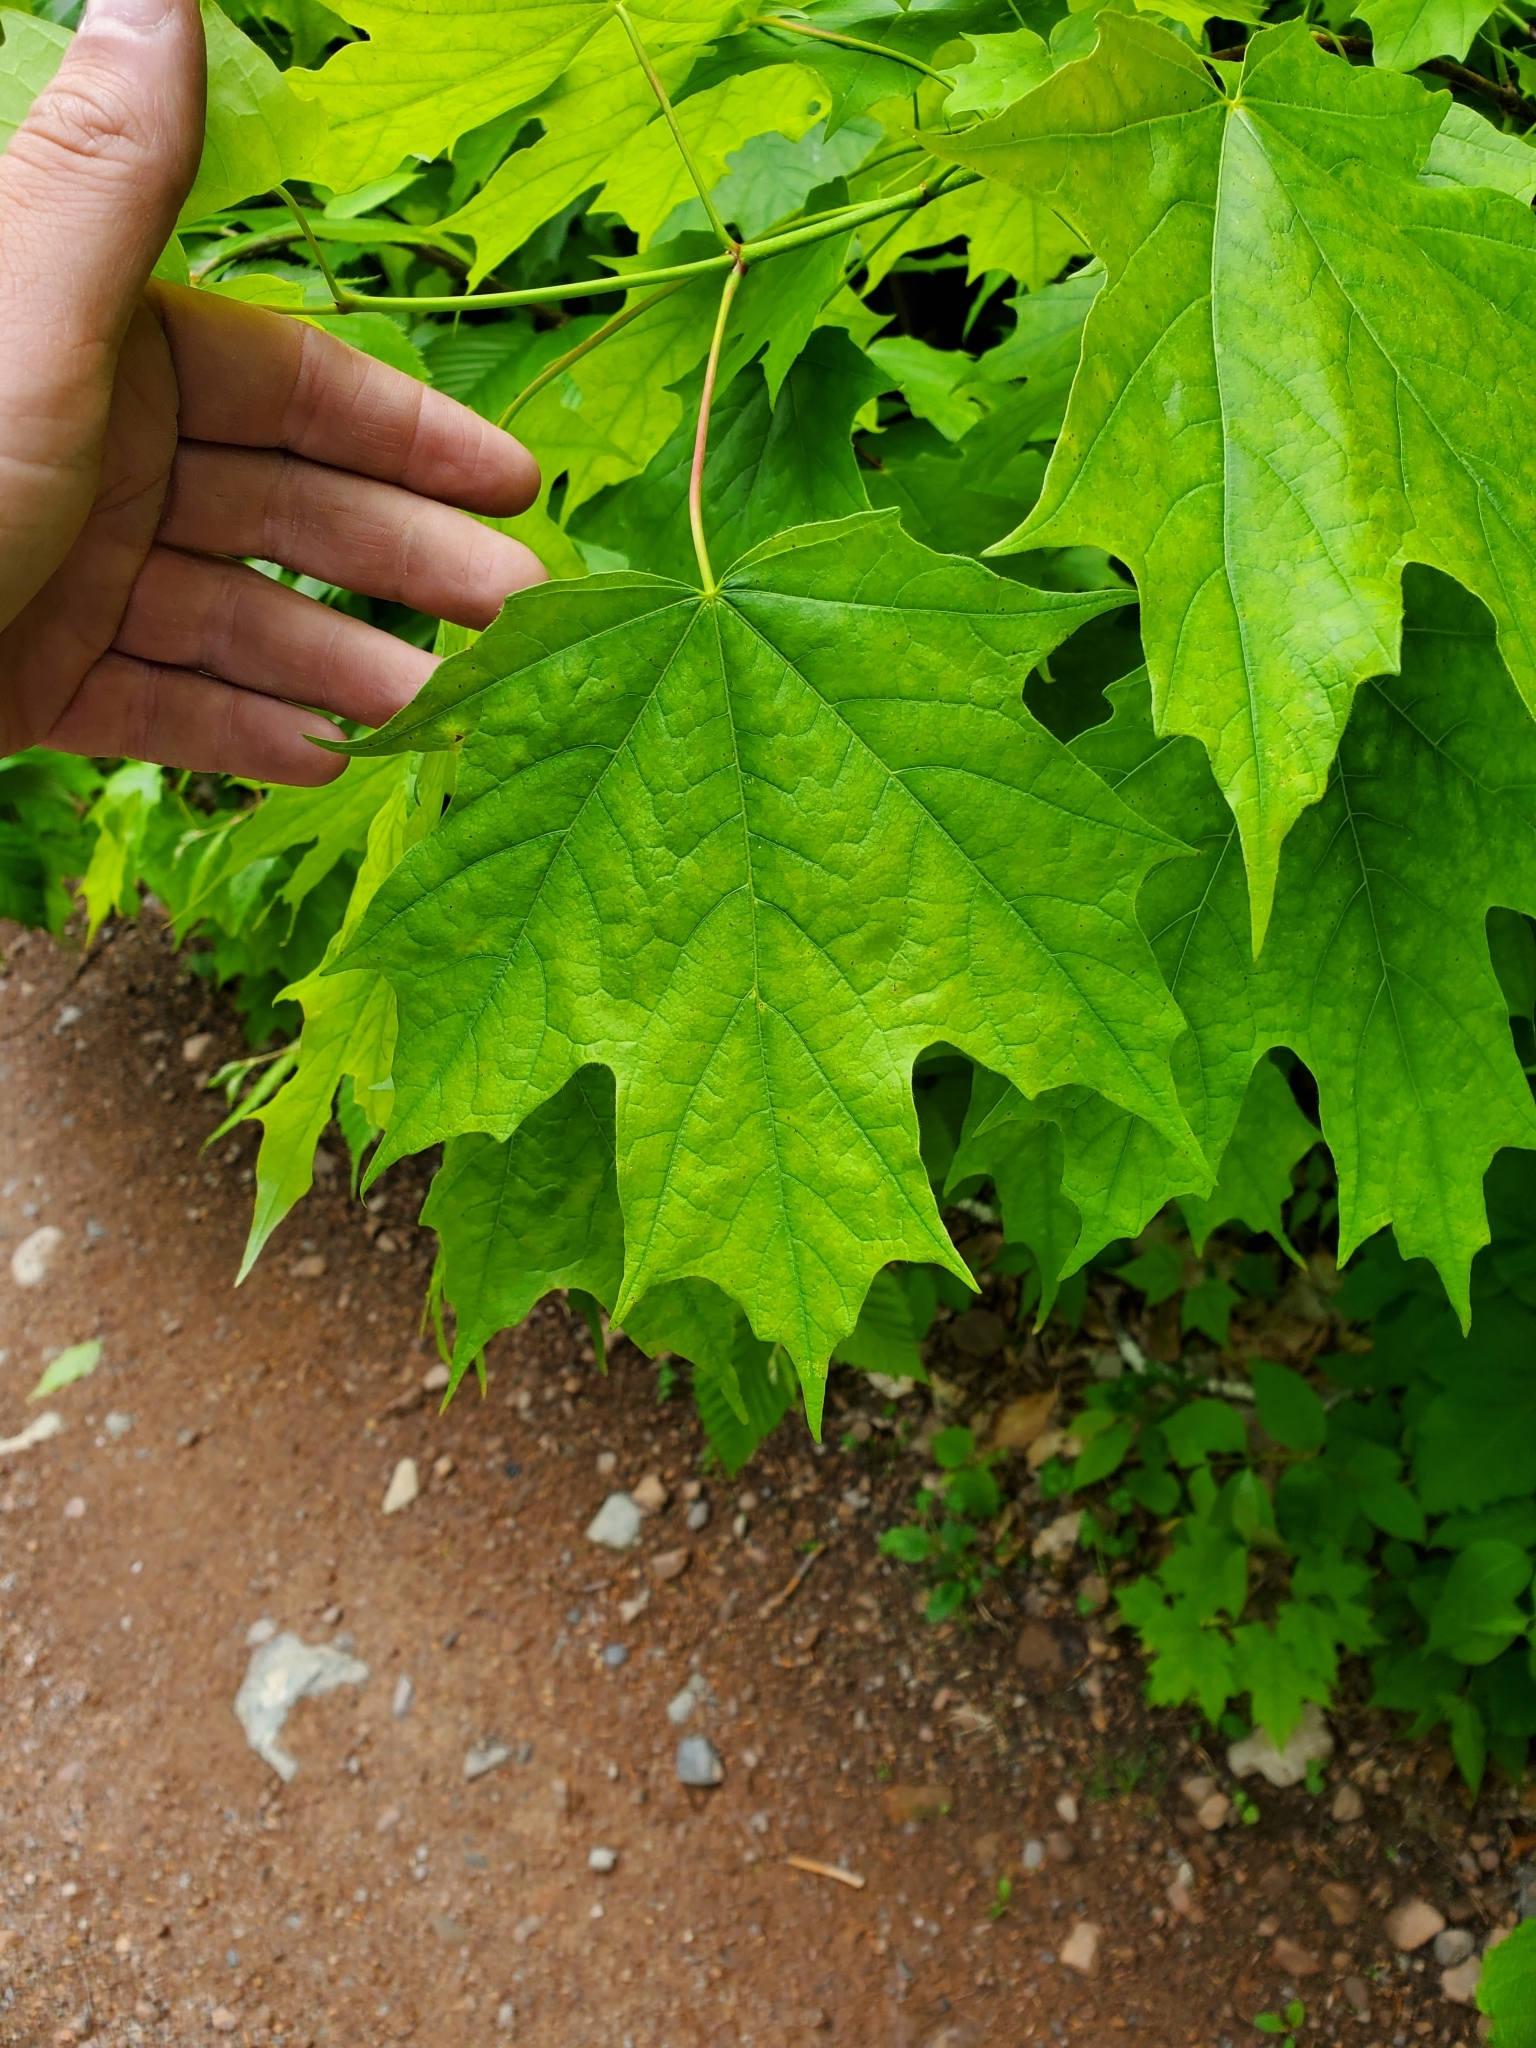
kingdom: Plantae
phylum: Tracheophyta
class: Magnoliopsida
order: Sapindales
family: Sapindaceae
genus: Acer
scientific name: Acer saccharum
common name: Sugar maple
